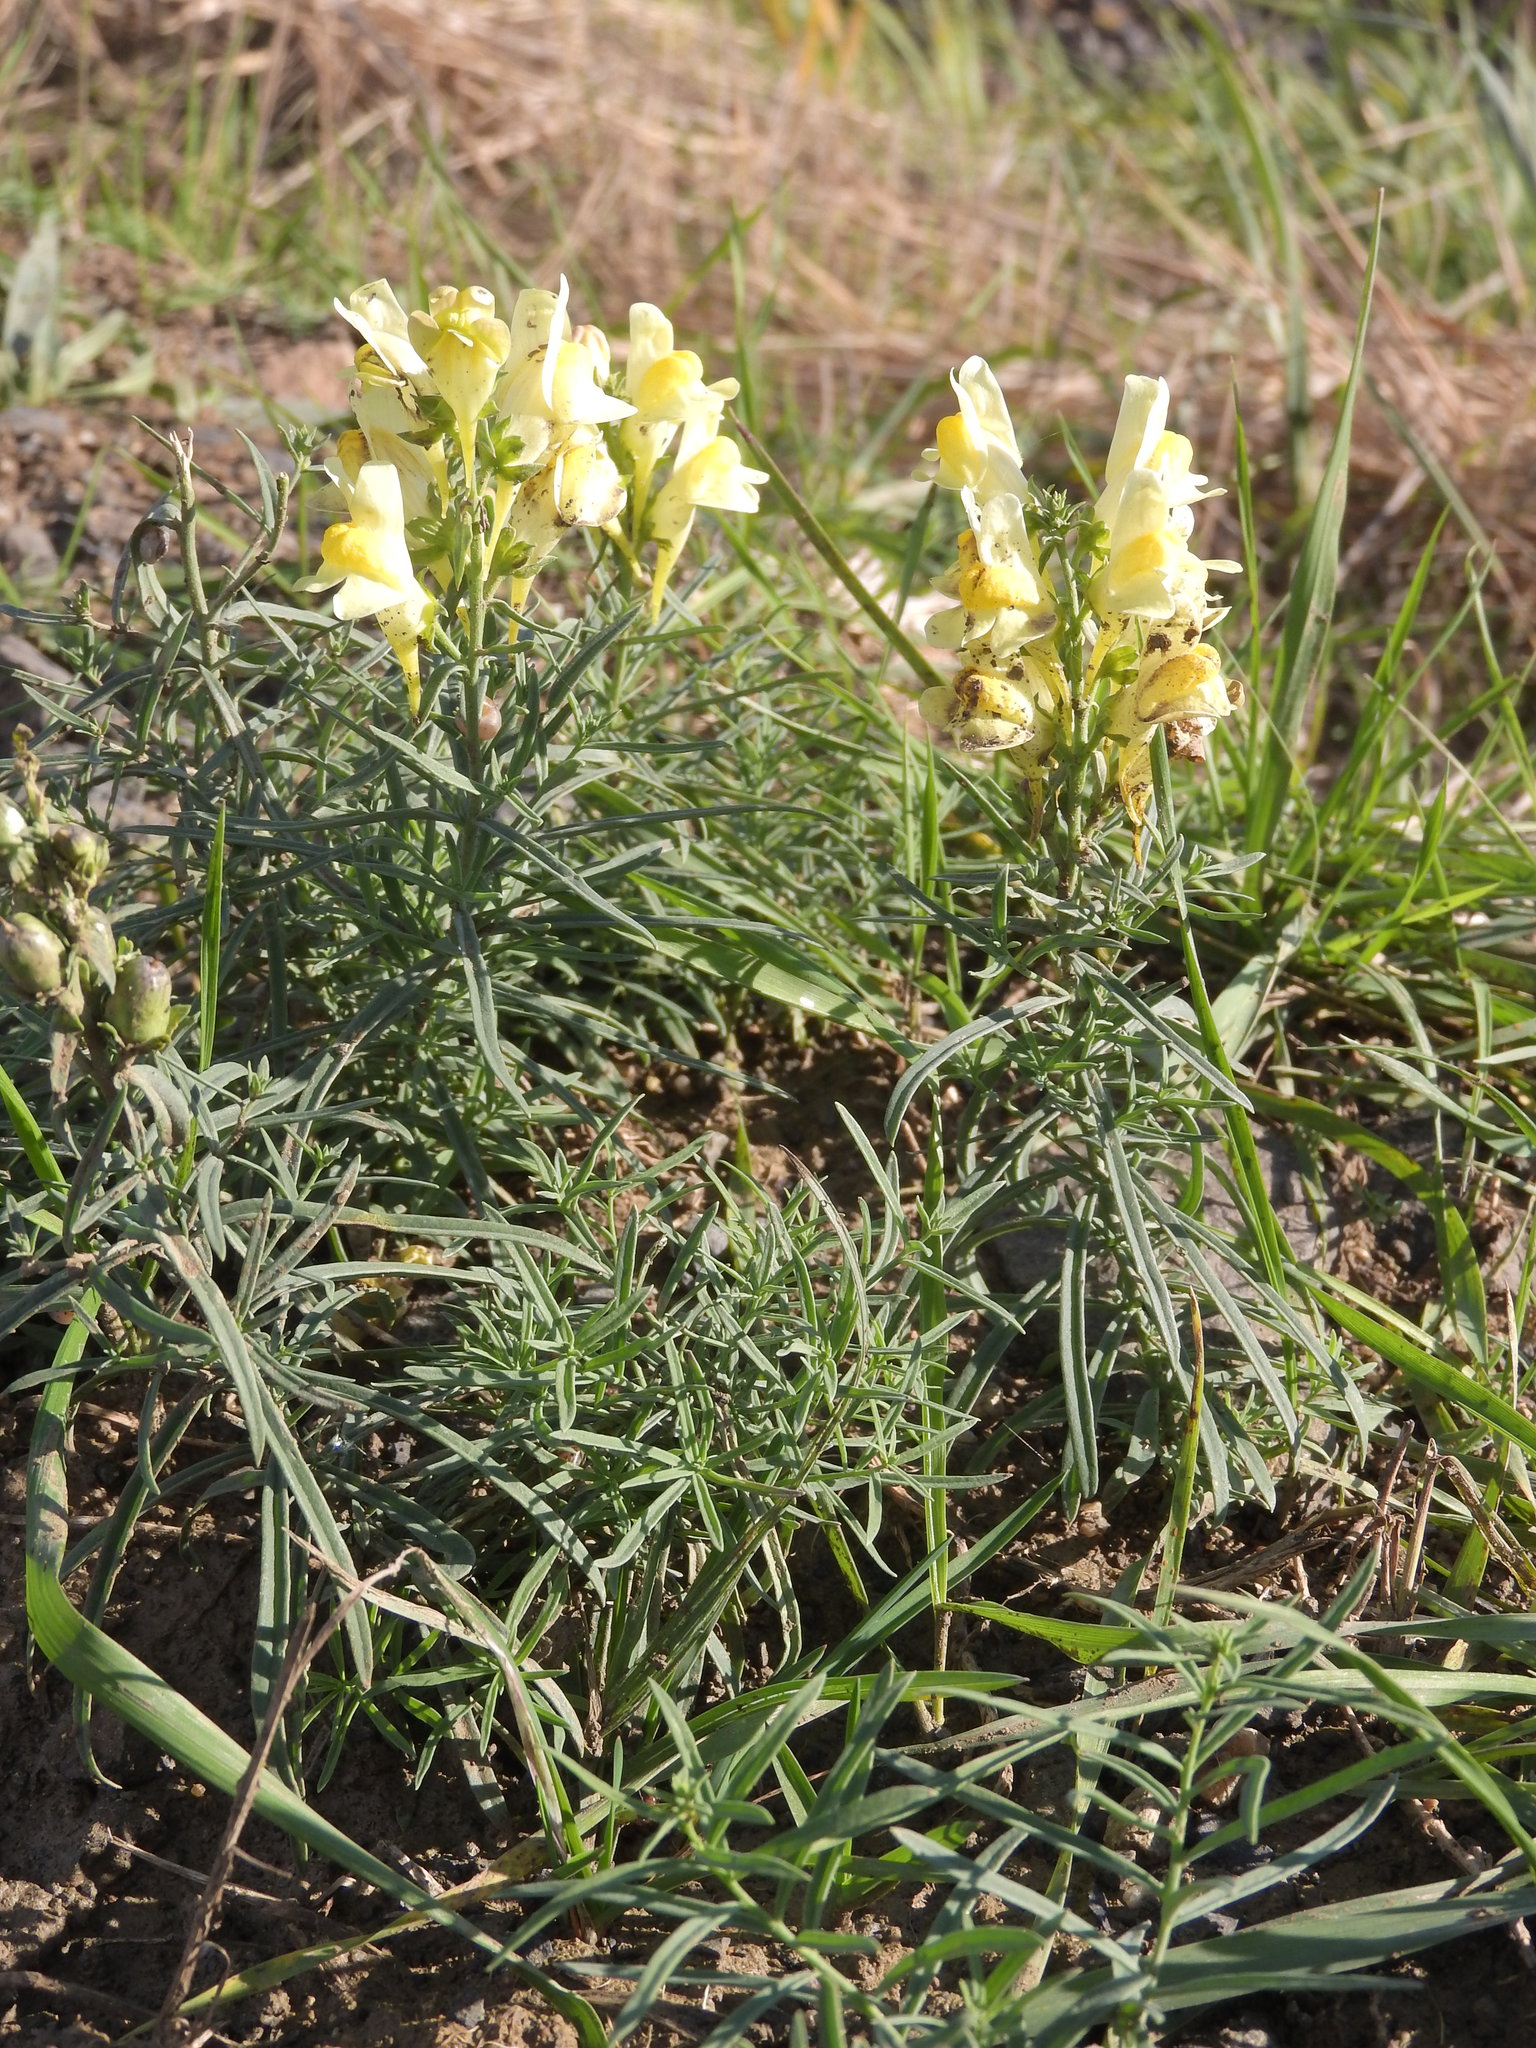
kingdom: Plantae
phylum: Tracheophyta
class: Magnoliopsida
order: Lamiales
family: Plantaginaceae
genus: Linaria
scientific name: Linaria vulgaris
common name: Butter and eggs
